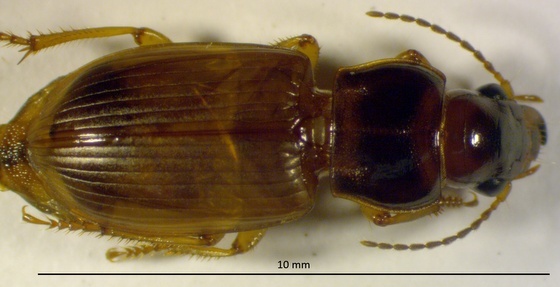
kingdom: Animalia
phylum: Arthropoda
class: Insecta
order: Coleoptera
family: Carabidae
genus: Anisodactylus
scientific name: Anisodactylus sanctaecrucis
